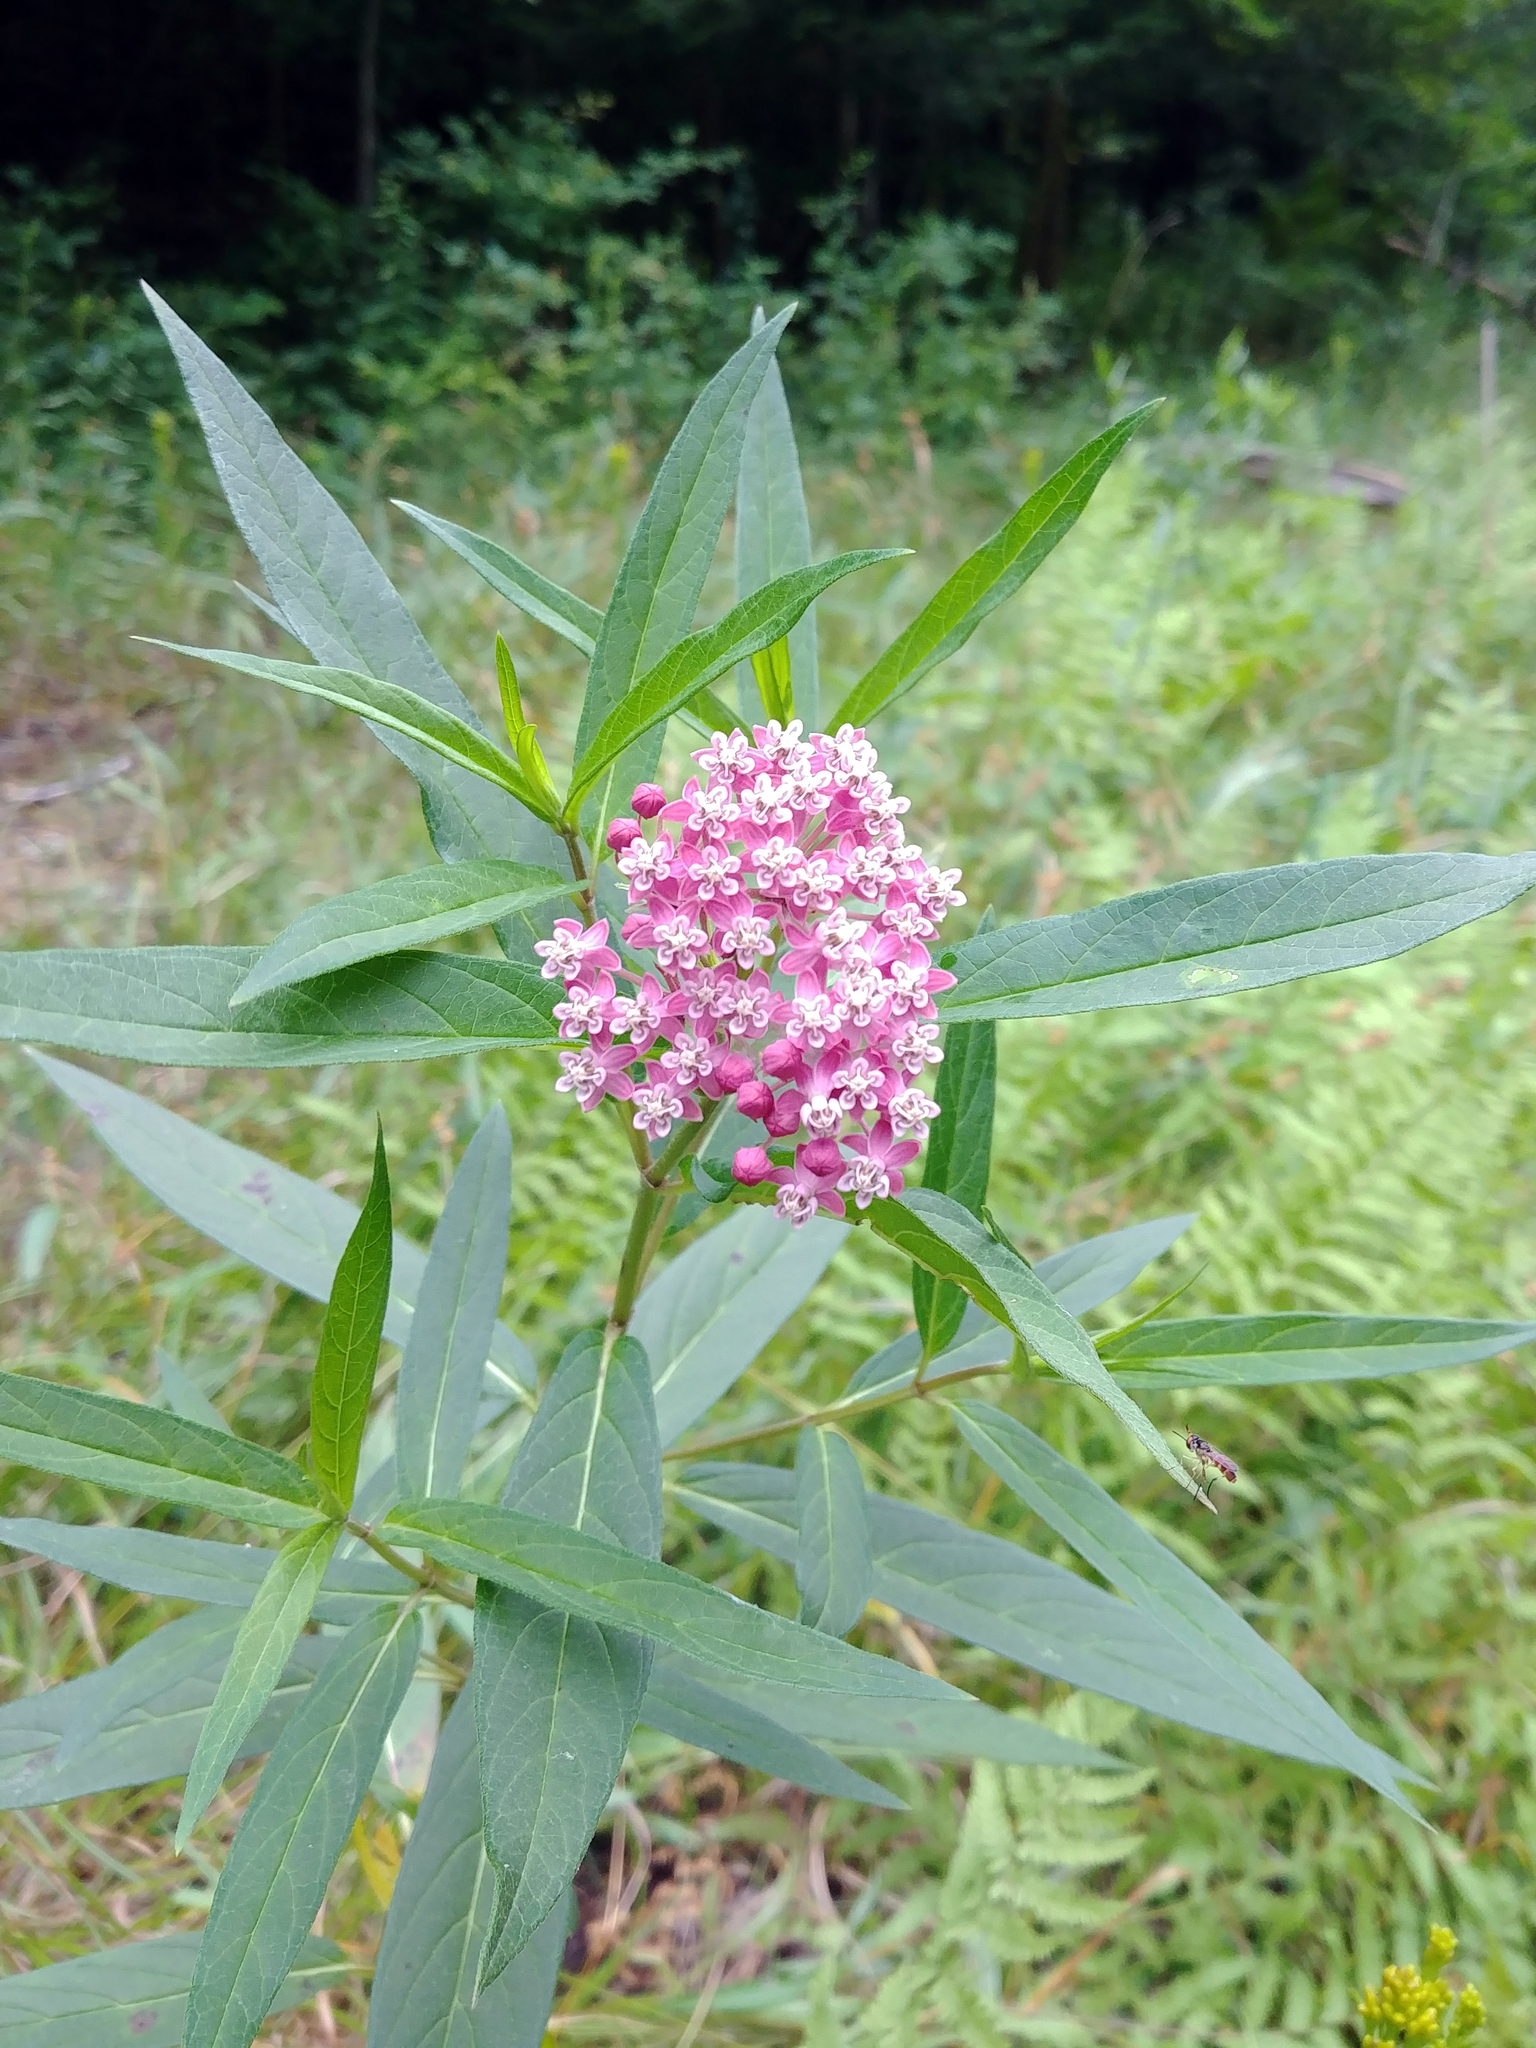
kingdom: Plantae
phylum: Tracheophyta
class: Magnoliopsida
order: Gentianales
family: Apocynaceae
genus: Asclepias
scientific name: Asclepias incarnata
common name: Swamp milkweed
